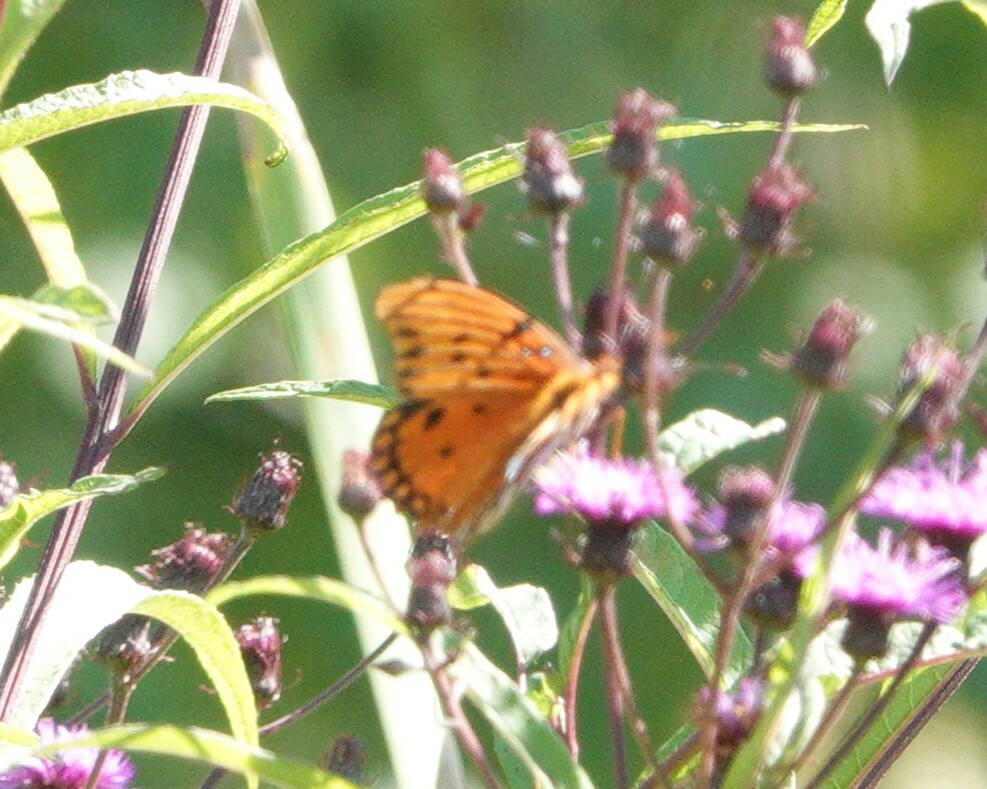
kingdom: Animalia
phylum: Arthropoda
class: Insecta
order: Lepidoptera
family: Nymphalidae
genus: Dione
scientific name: Dione vanillae
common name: Gulf fritillary
